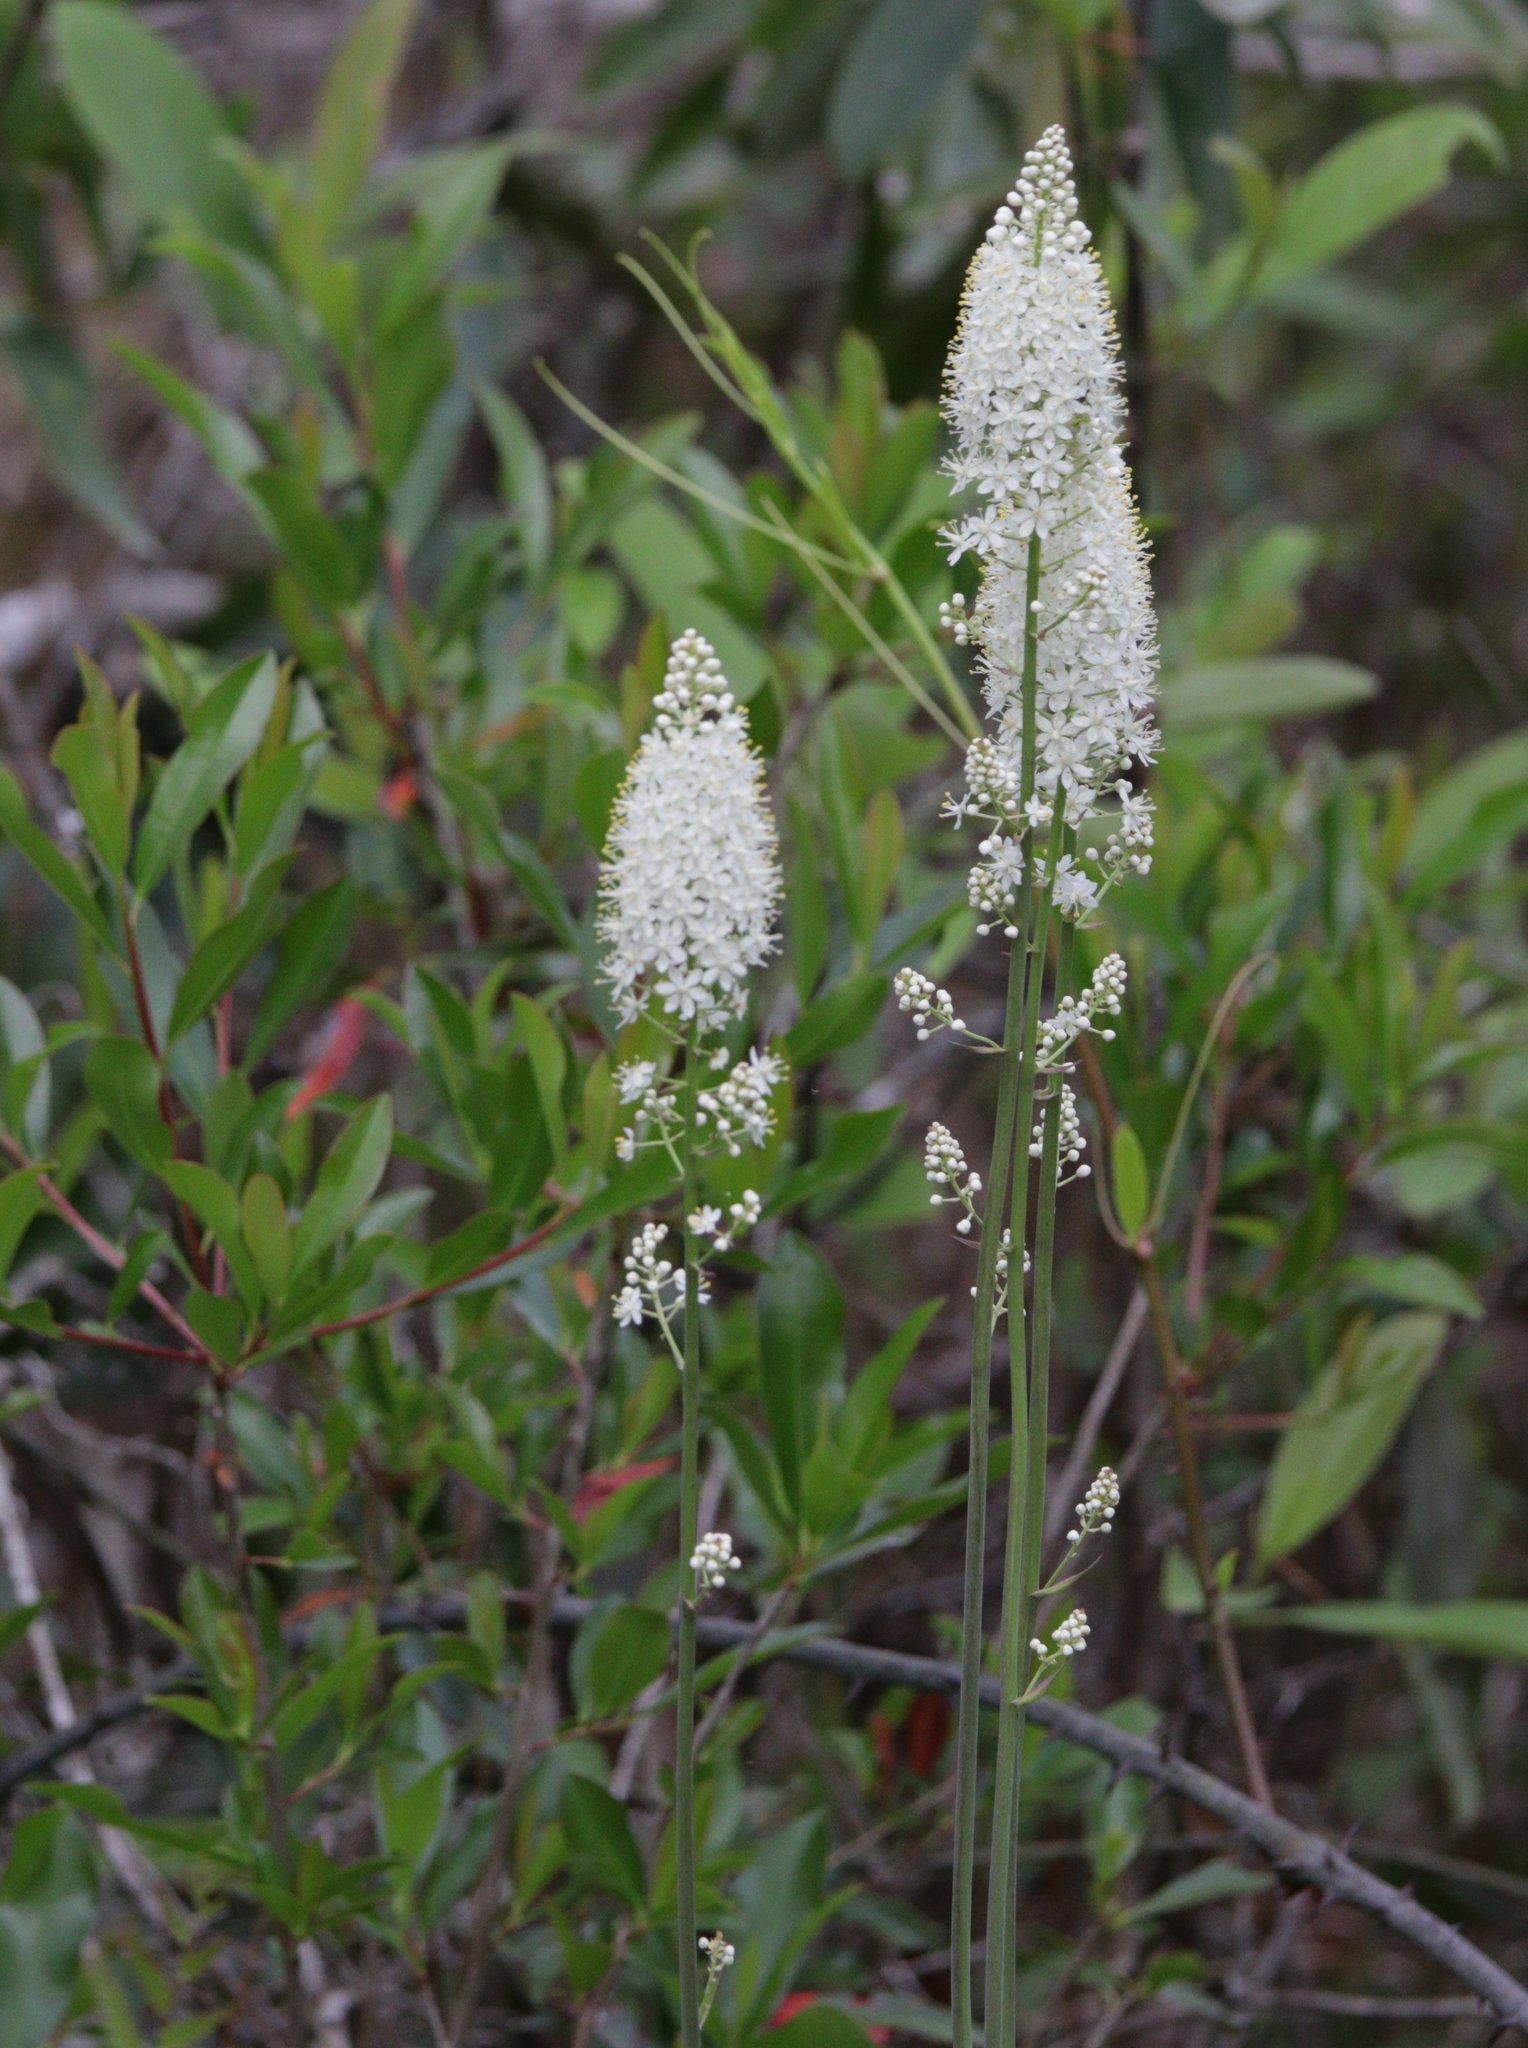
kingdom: Plantae
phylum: Tracheophyta
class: Liliopsida
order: Liliales
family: Melanthiaceae
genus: Stenanthium
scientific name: Stenanthium texanum
